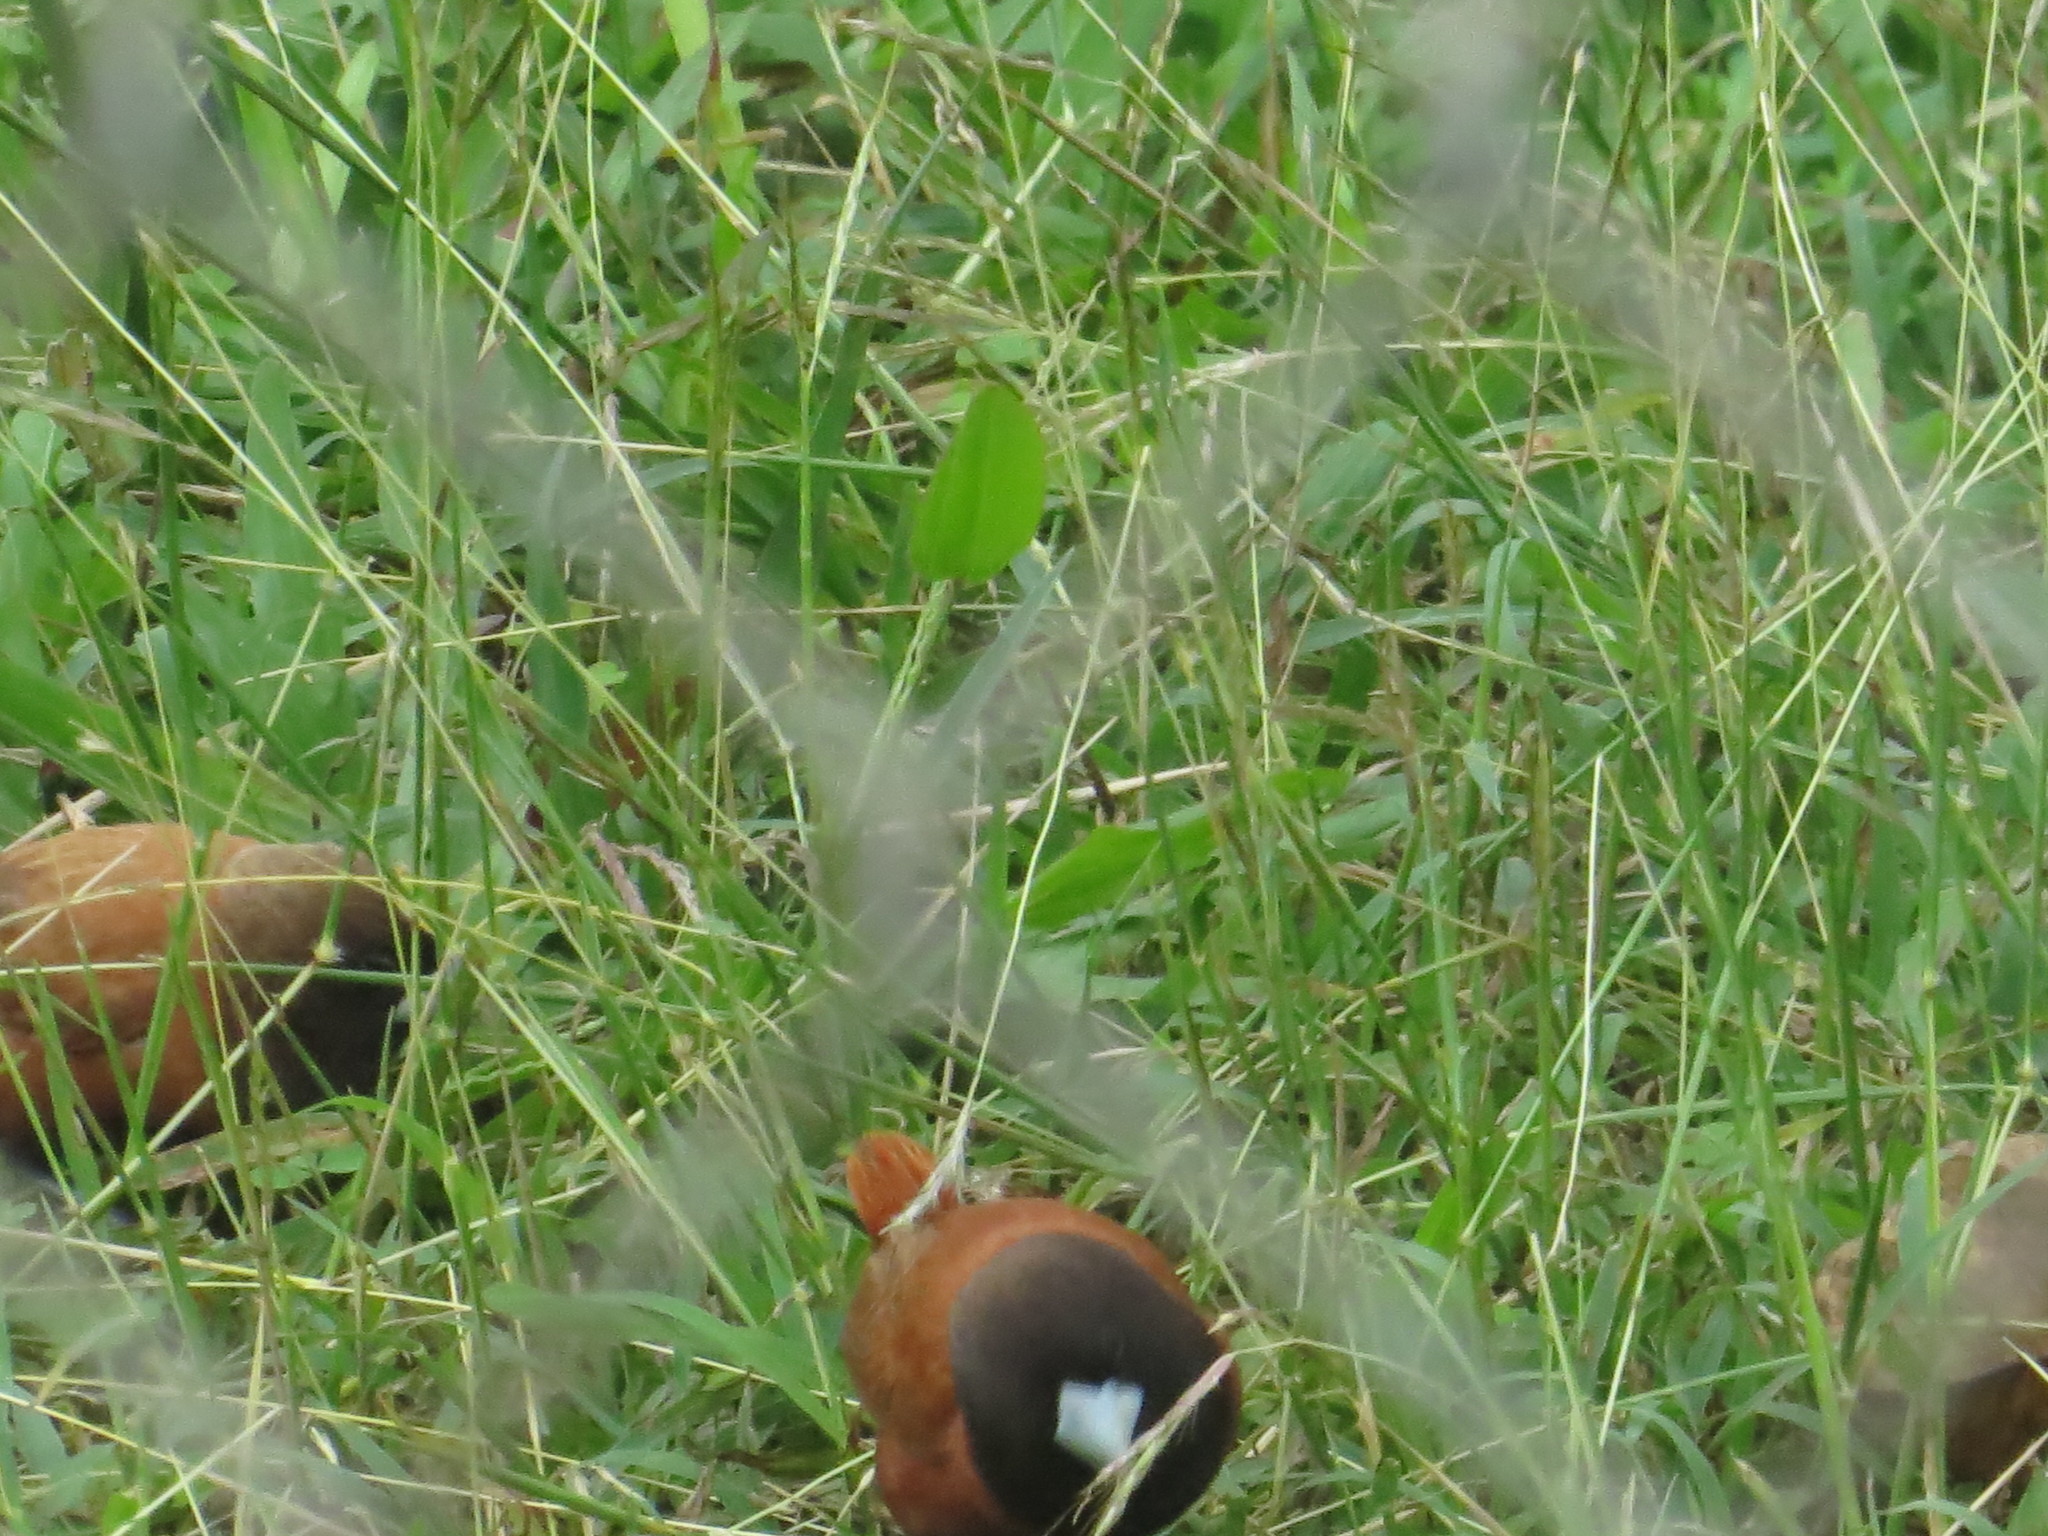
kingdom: Animalia
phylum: Chordata
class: Aves
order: Passeriformes
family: Estrildidae
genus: Lonchura
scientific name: Lonchura atricapilla
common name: Chestnut munia
